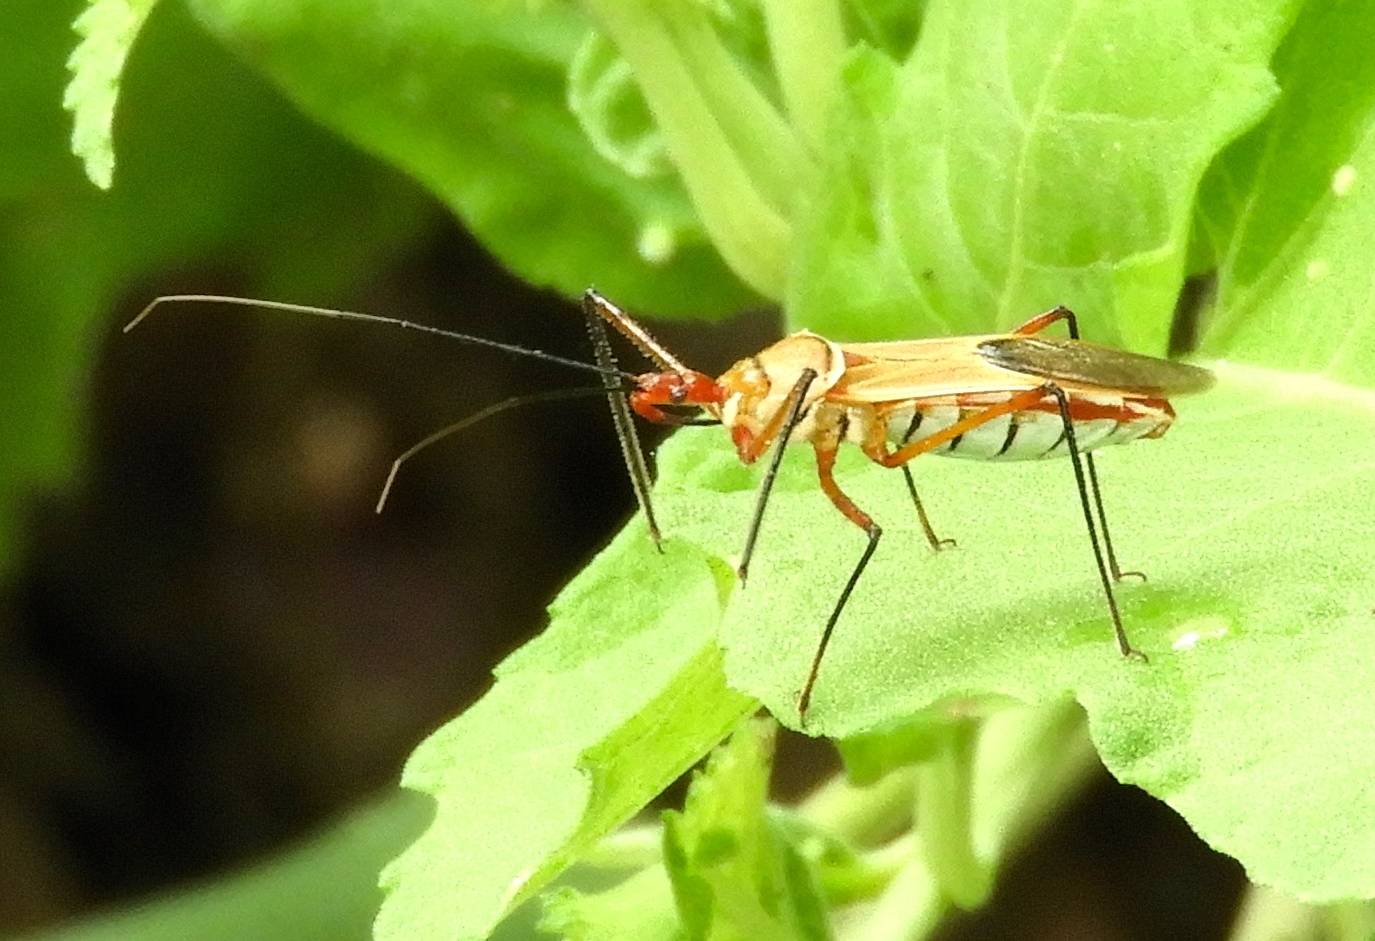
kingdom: Animalia
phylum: Arthropoda
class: Insecta
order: Hemiptera
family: Reduviidae
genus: Zelus
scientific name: Zelus grassans
